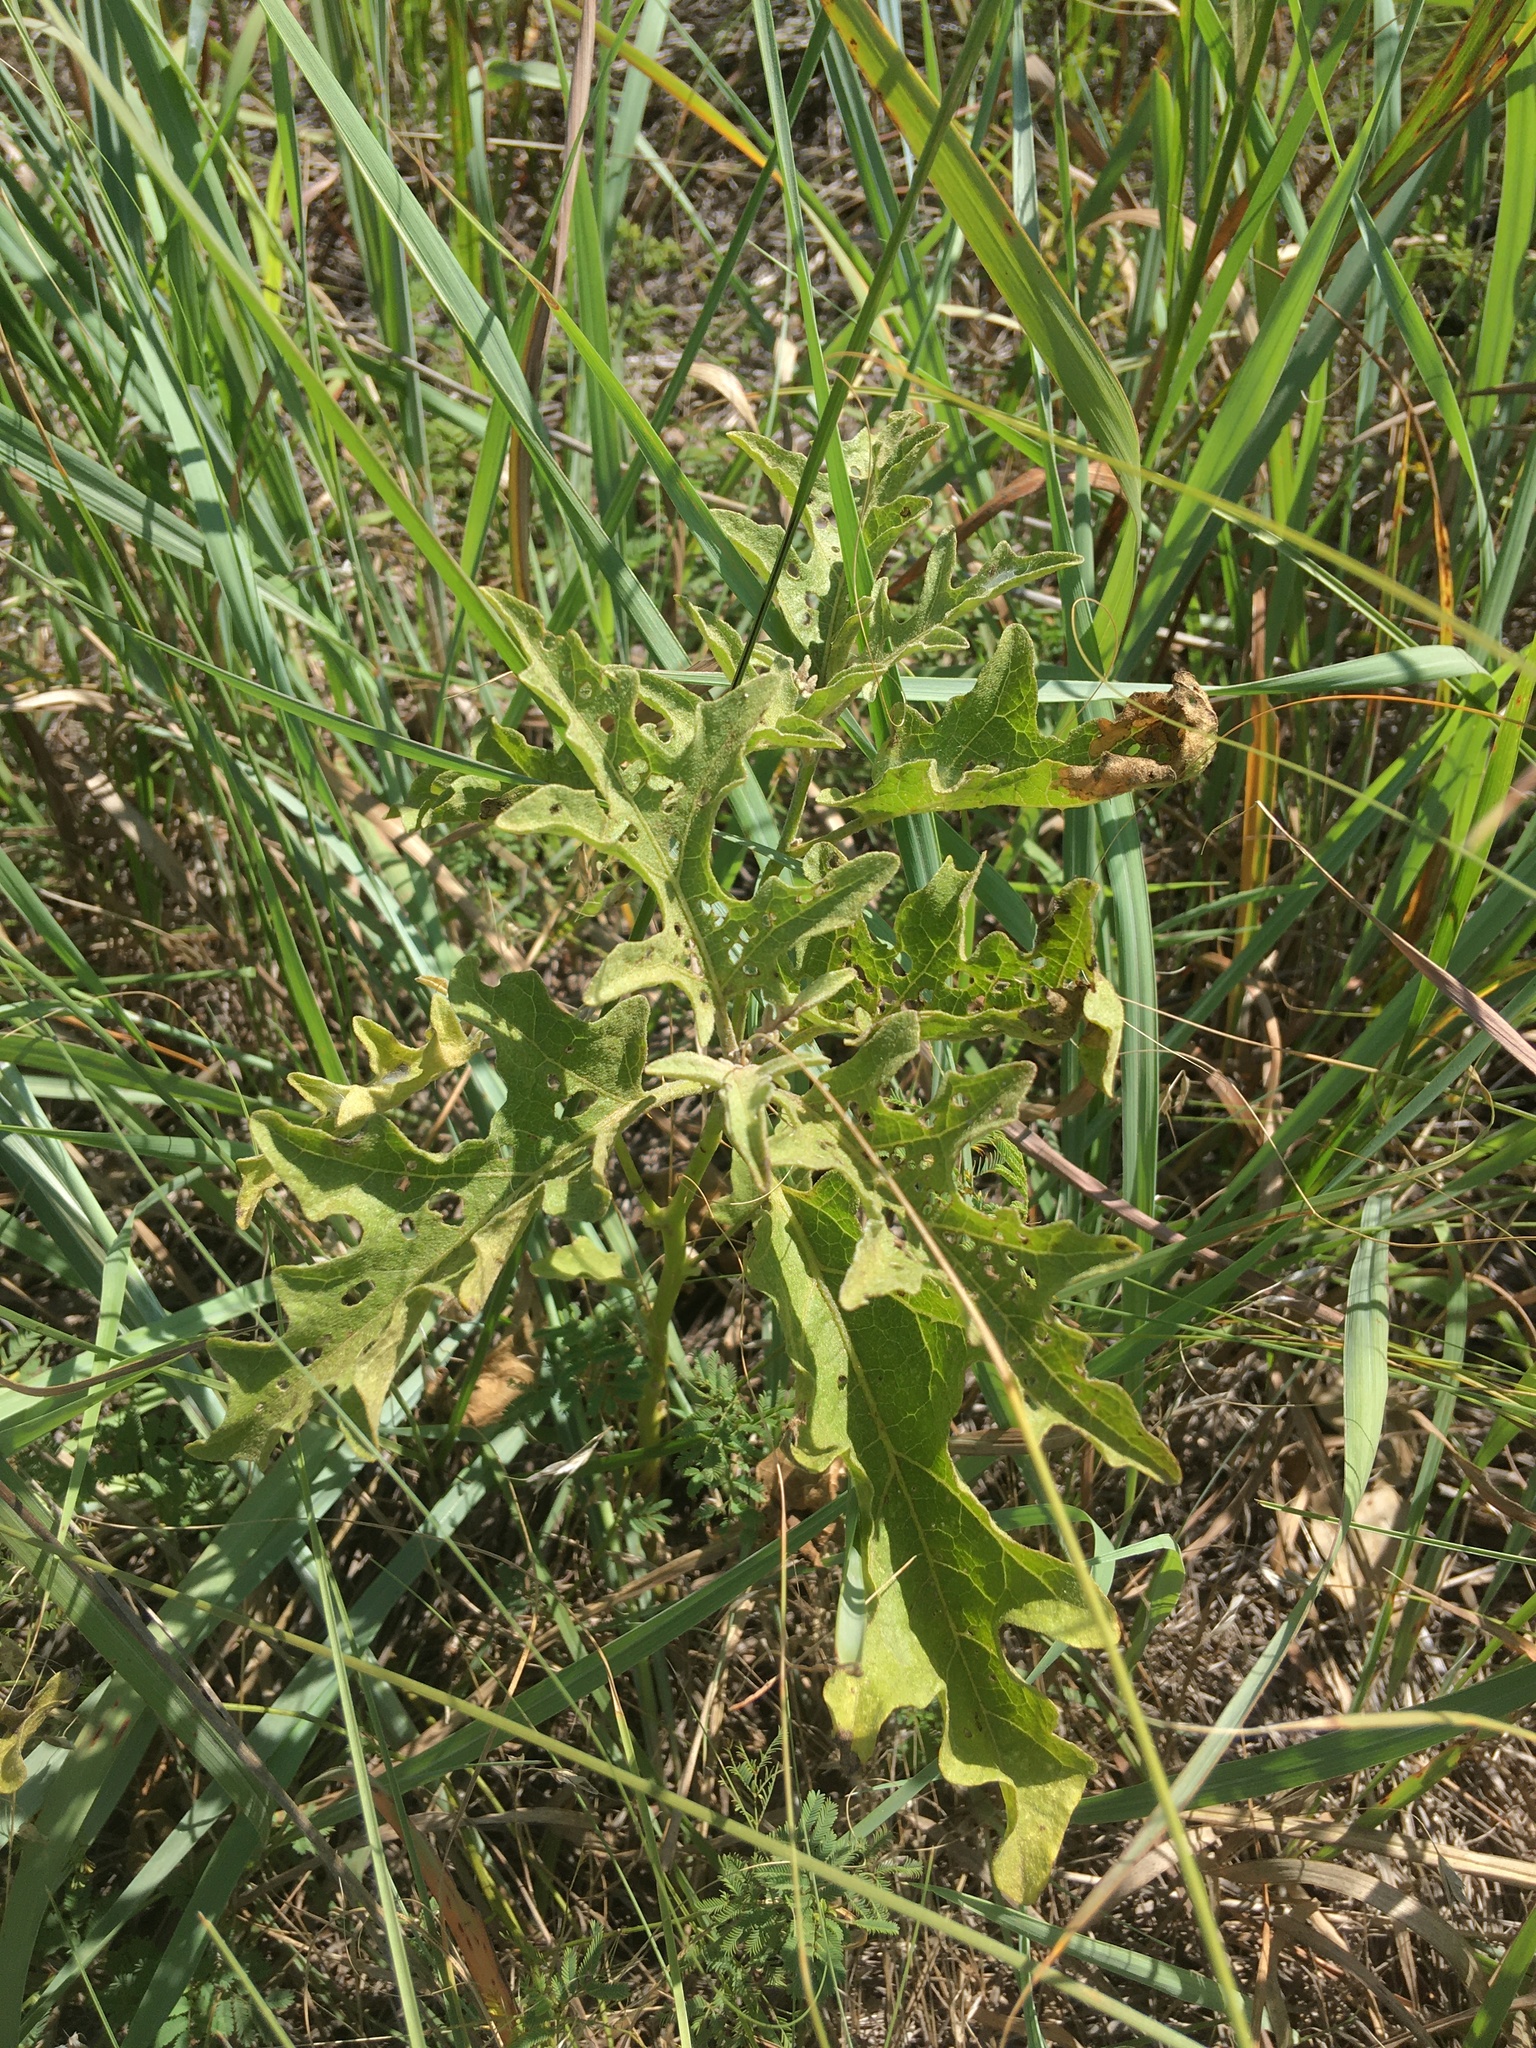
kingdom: Plantae
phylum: Tracheophyta
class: Magnoliopsida
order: Solanales
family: Solanaceae
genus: Solanum
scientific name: Solanum dimidiatum
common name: Carolina horse-nettle
